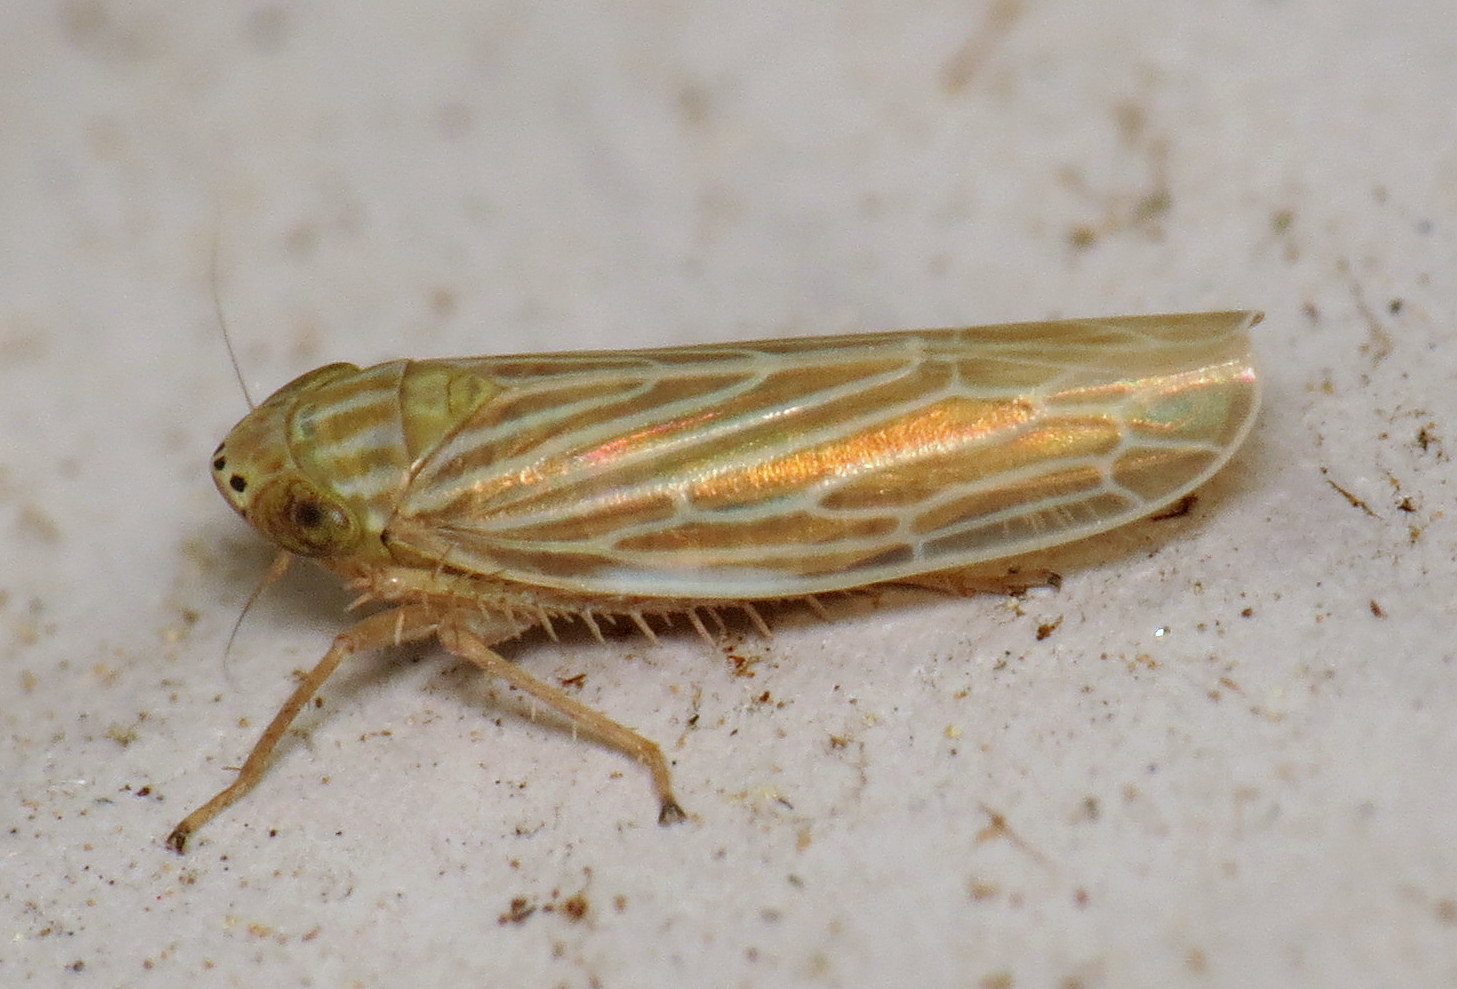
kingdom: Animalia
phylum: Arthropoda
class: Insecta
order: Hemiptera
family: Cicadellidae
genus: Graminella
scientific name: Graminella fitchii
